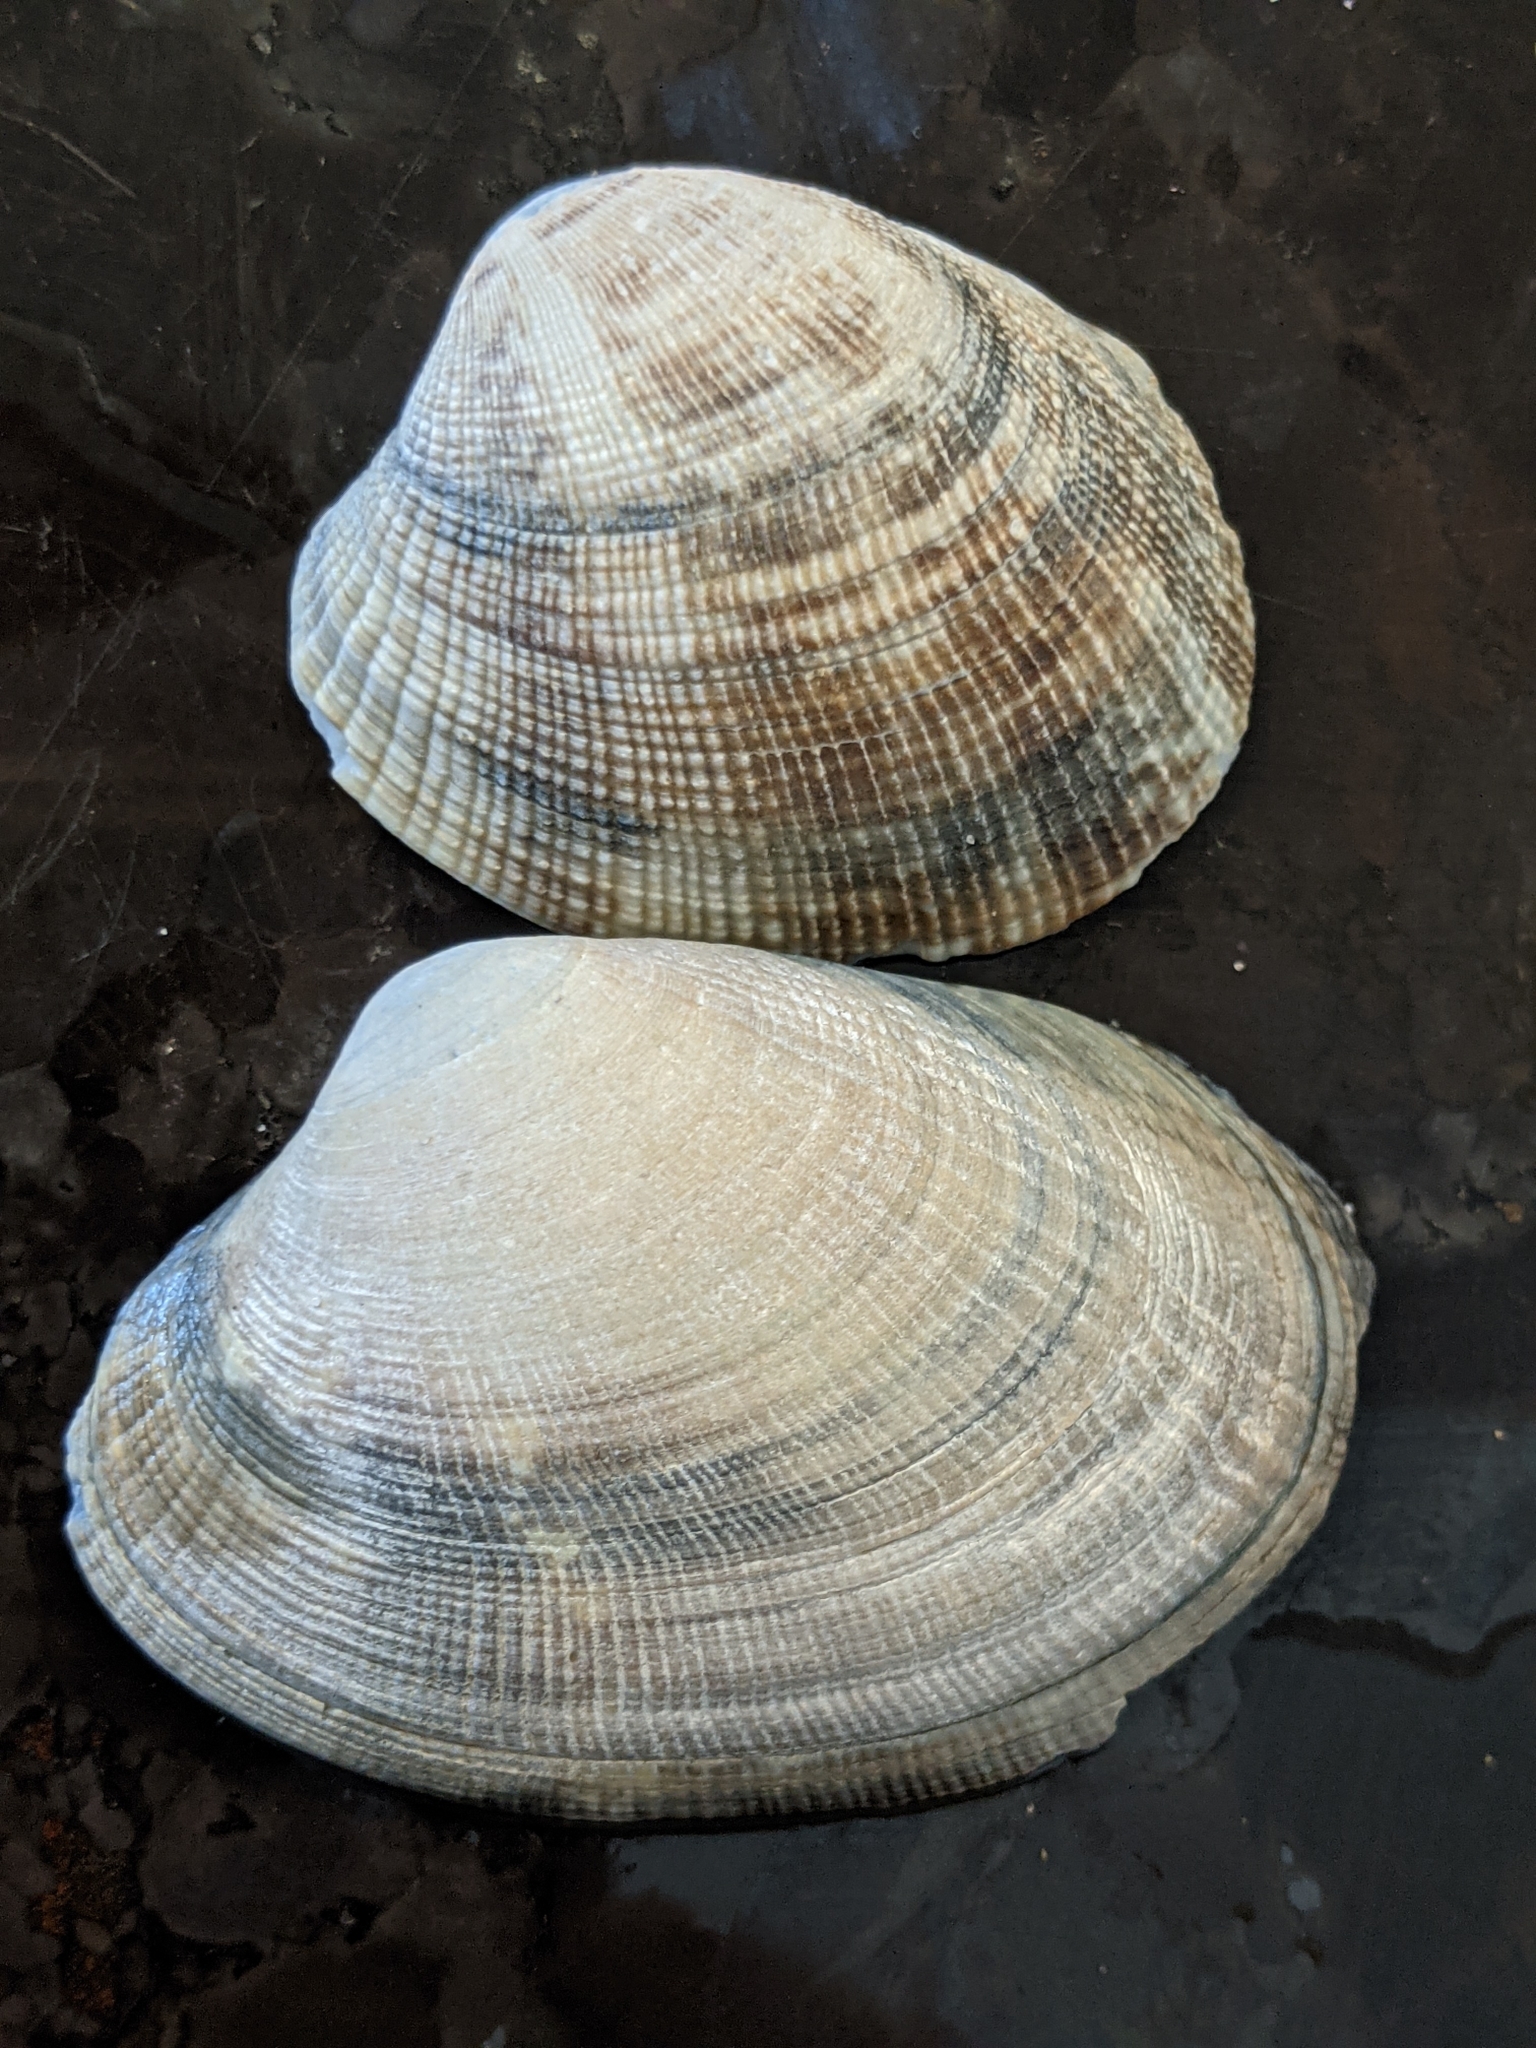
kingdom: Animalia
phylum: Mollusca
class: Bivalvia
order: Venerida
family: Veneridae
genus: Ruditapes
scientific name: Ruditapes philippinarum
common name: Manila clam
